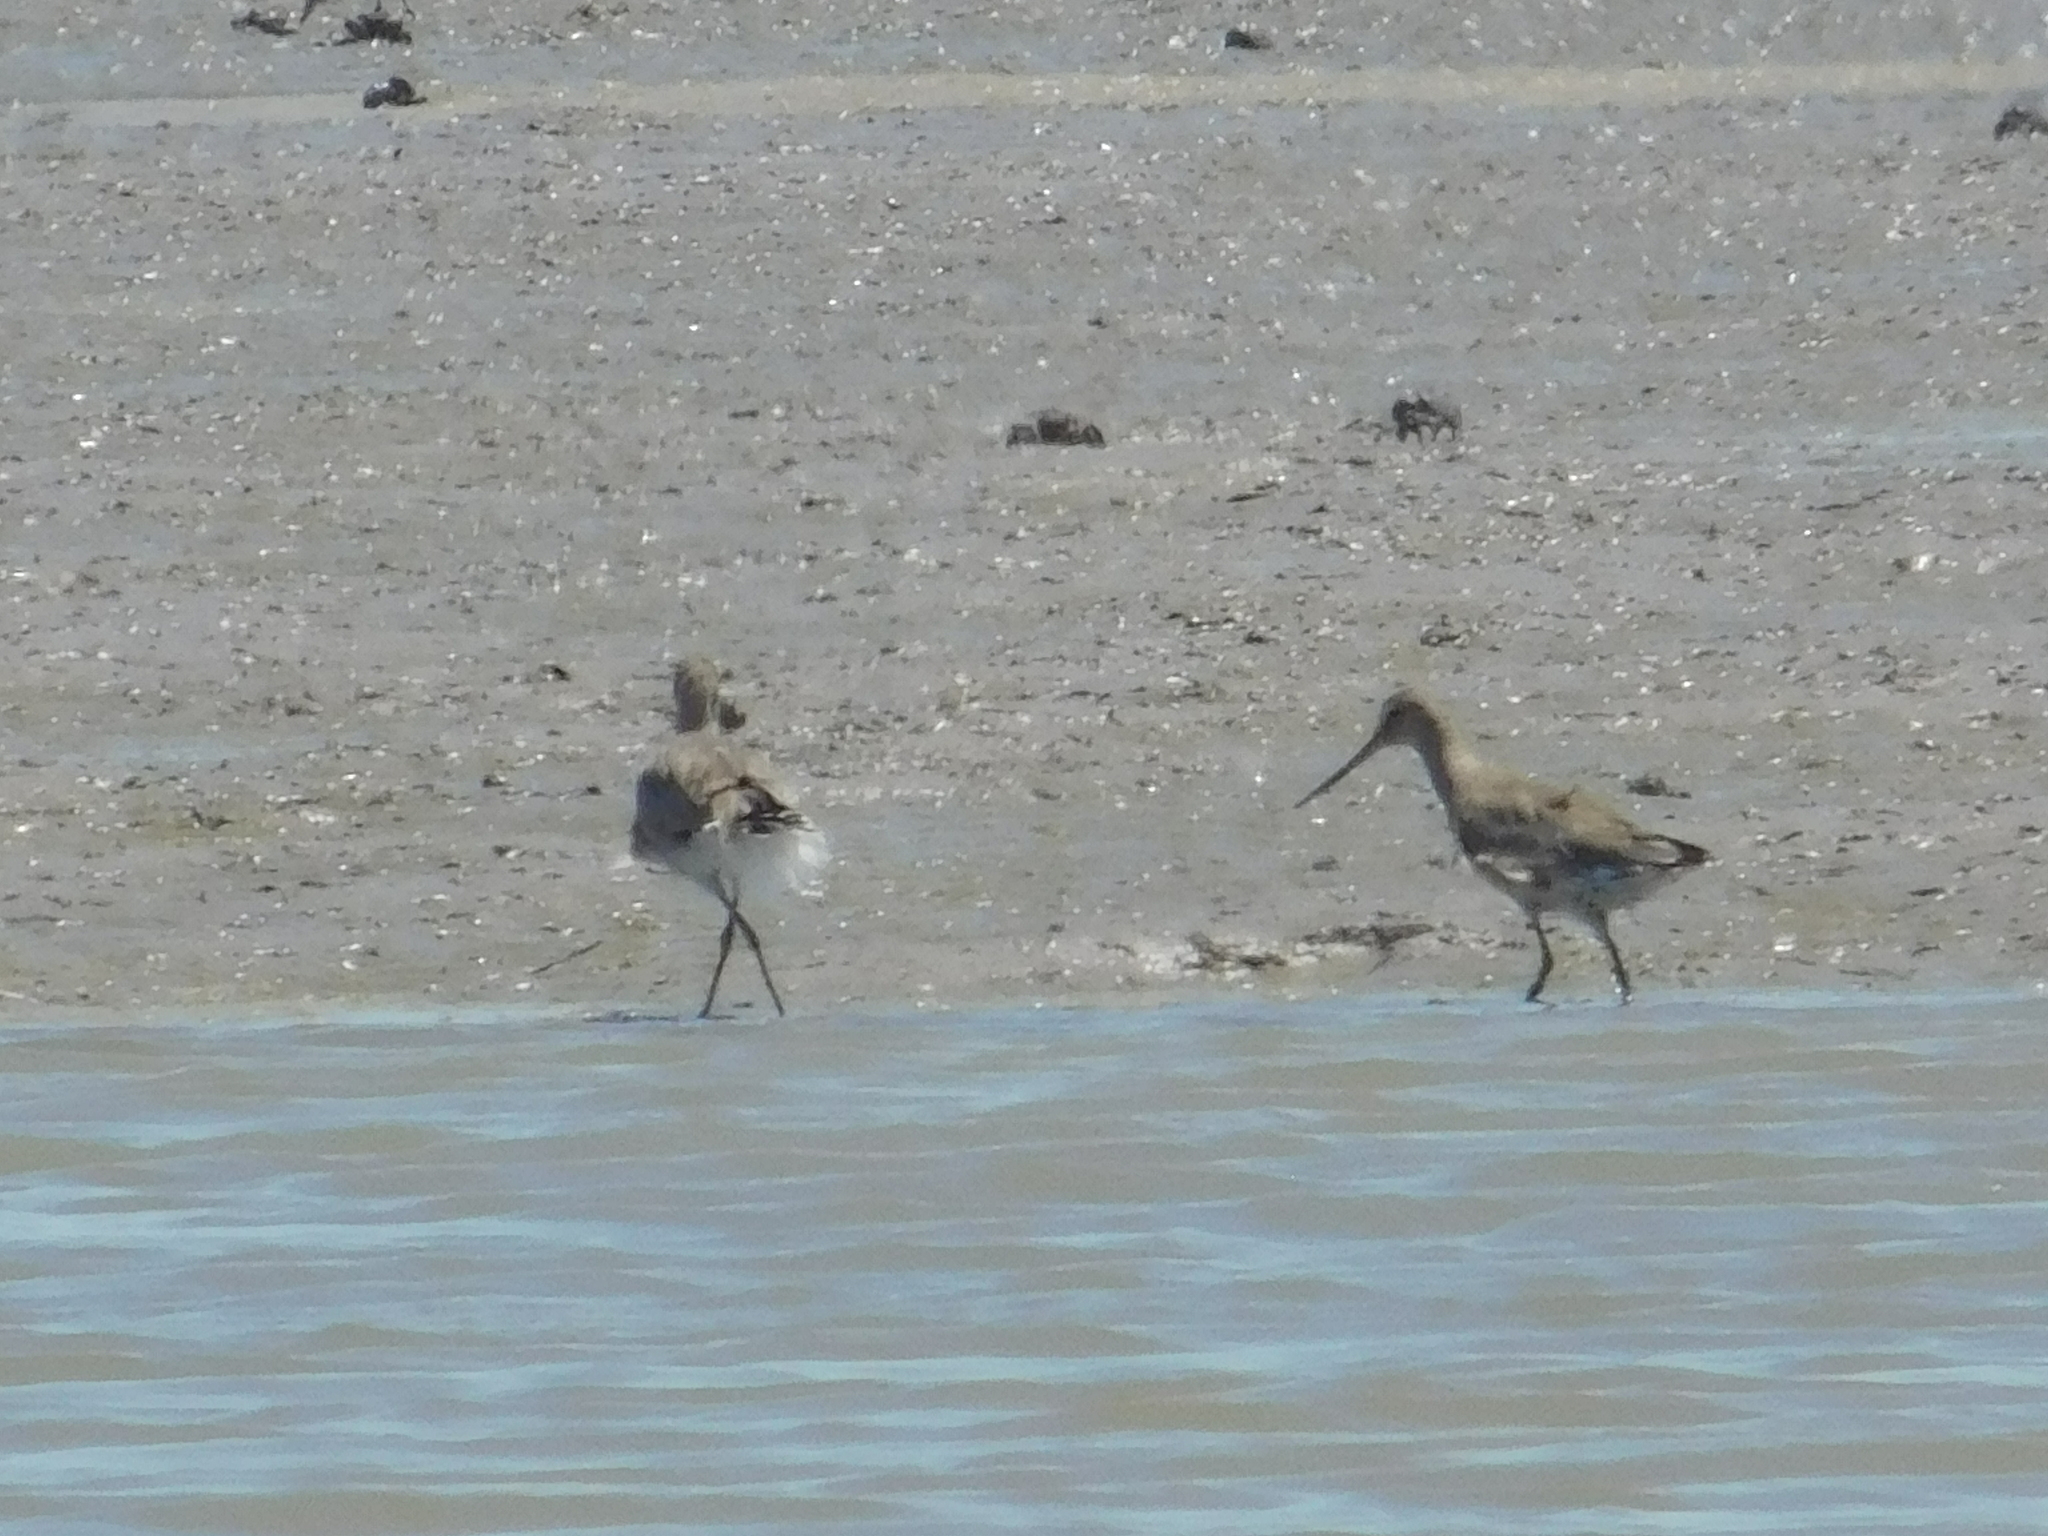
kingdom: Animalia
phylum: Chordata
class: Aves
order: Charadriiformes
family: Scolopacidae
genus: Limosa
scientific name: Limosa haemastica
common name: Hudsonian godwit
